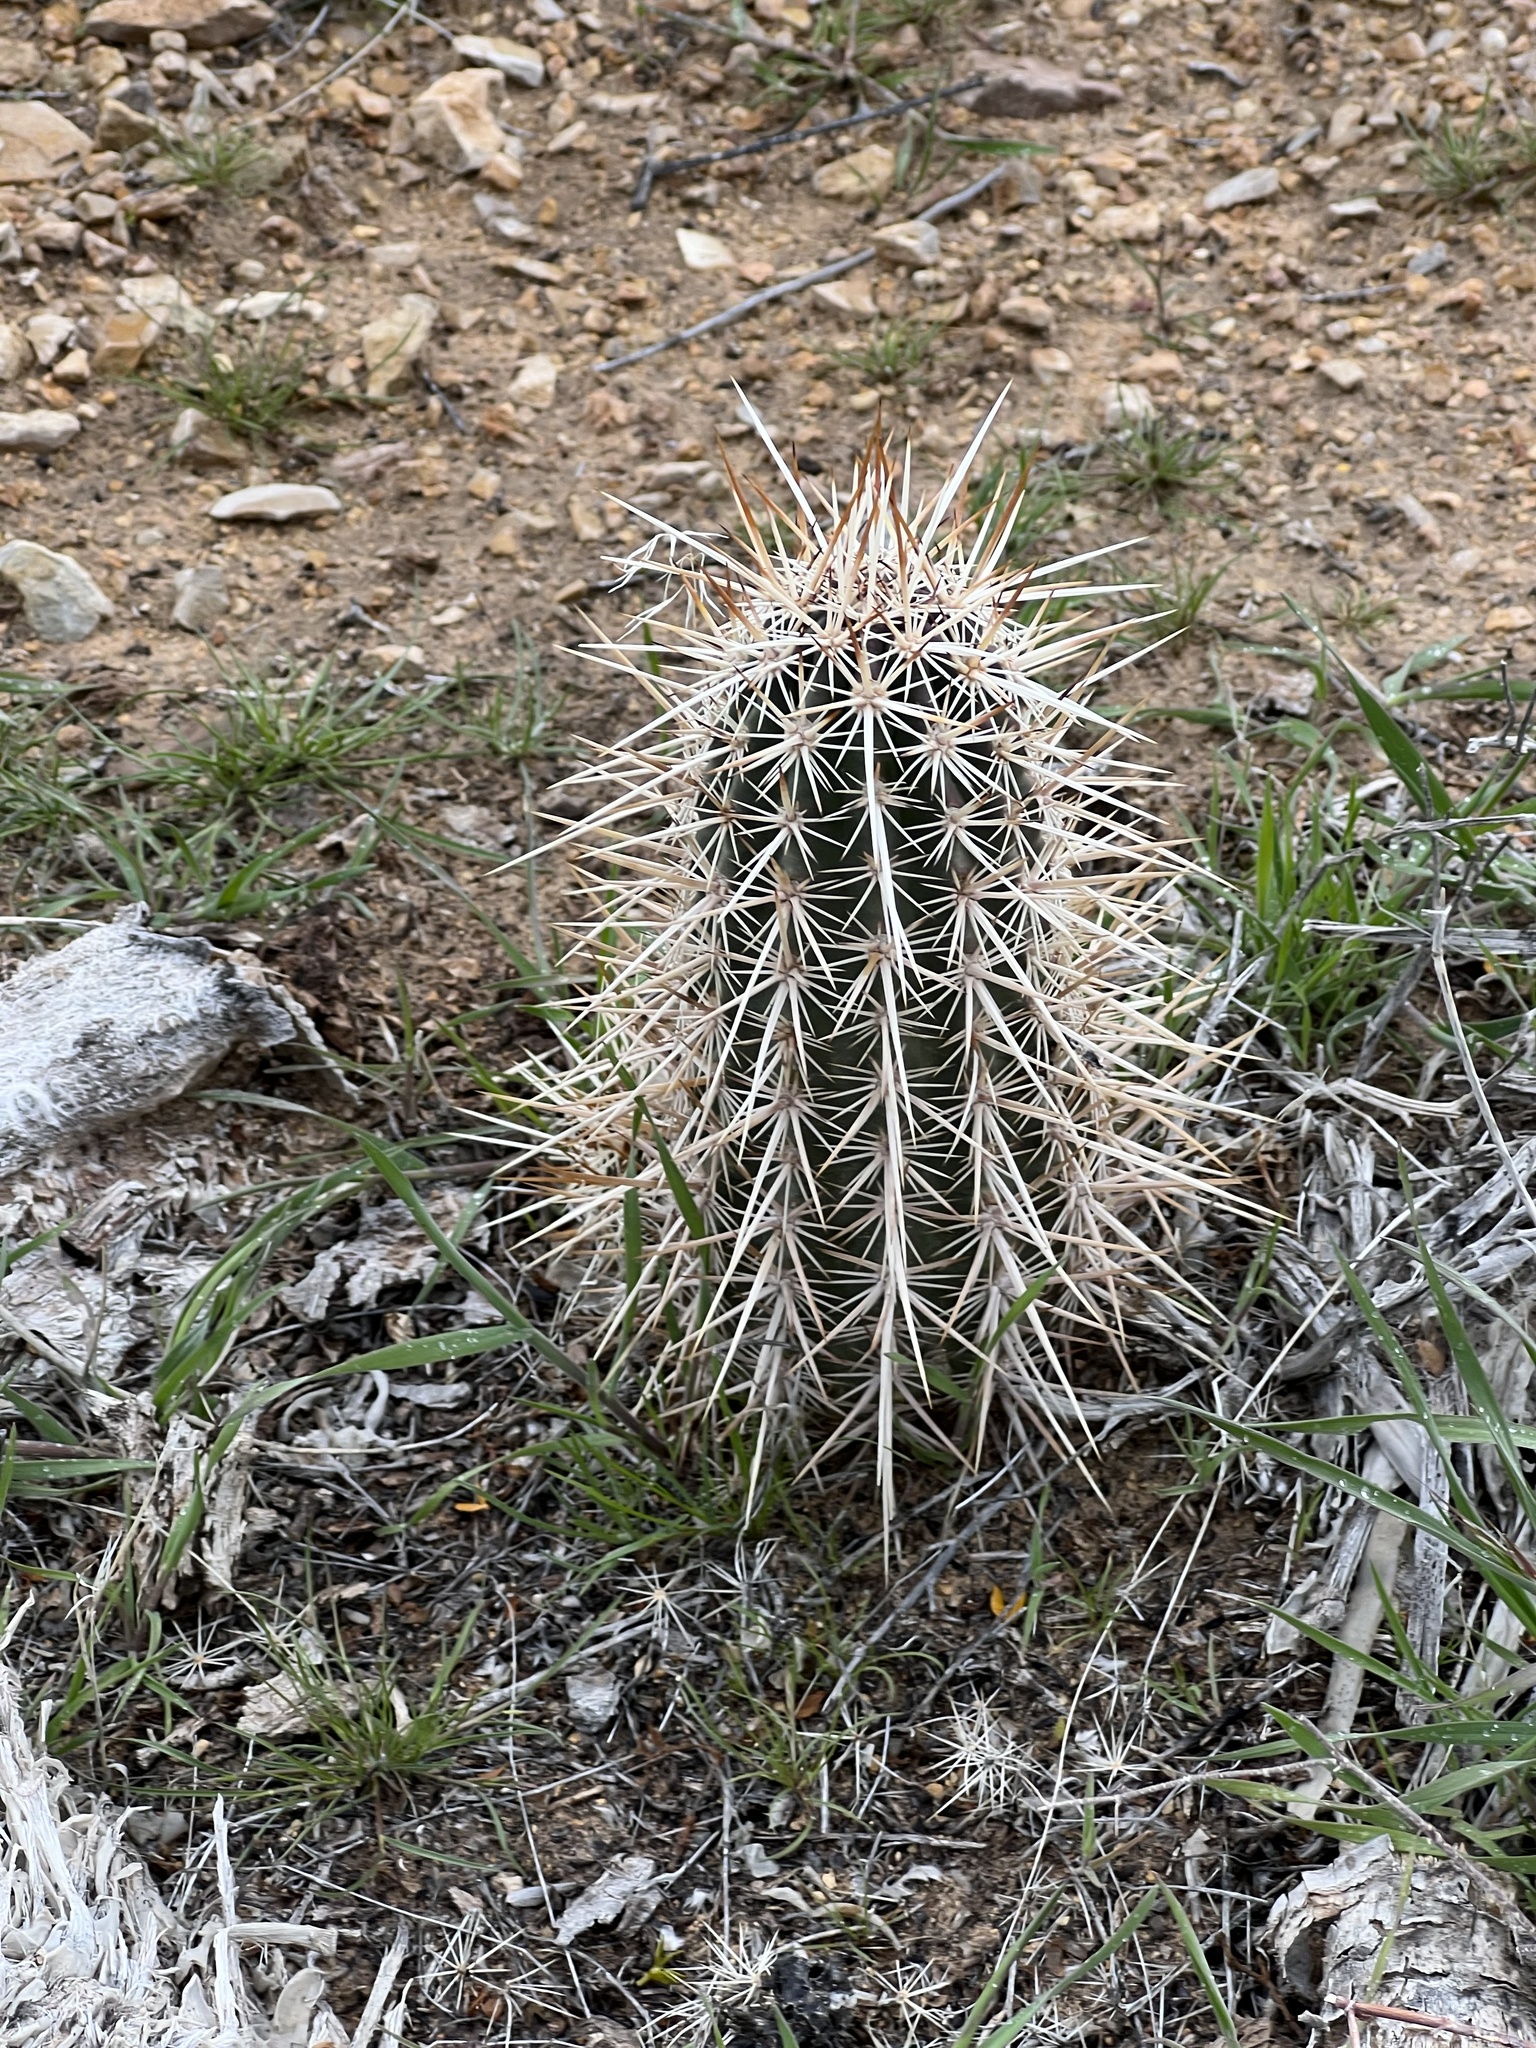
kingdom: Plantae
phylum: Tracheophyta
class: Magnoliopsida
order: Caryophyllales
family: Cactaceae
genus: Echinocereus
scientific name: Echinocereus engelmannii
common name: Engelmann's hedgehog cactus
